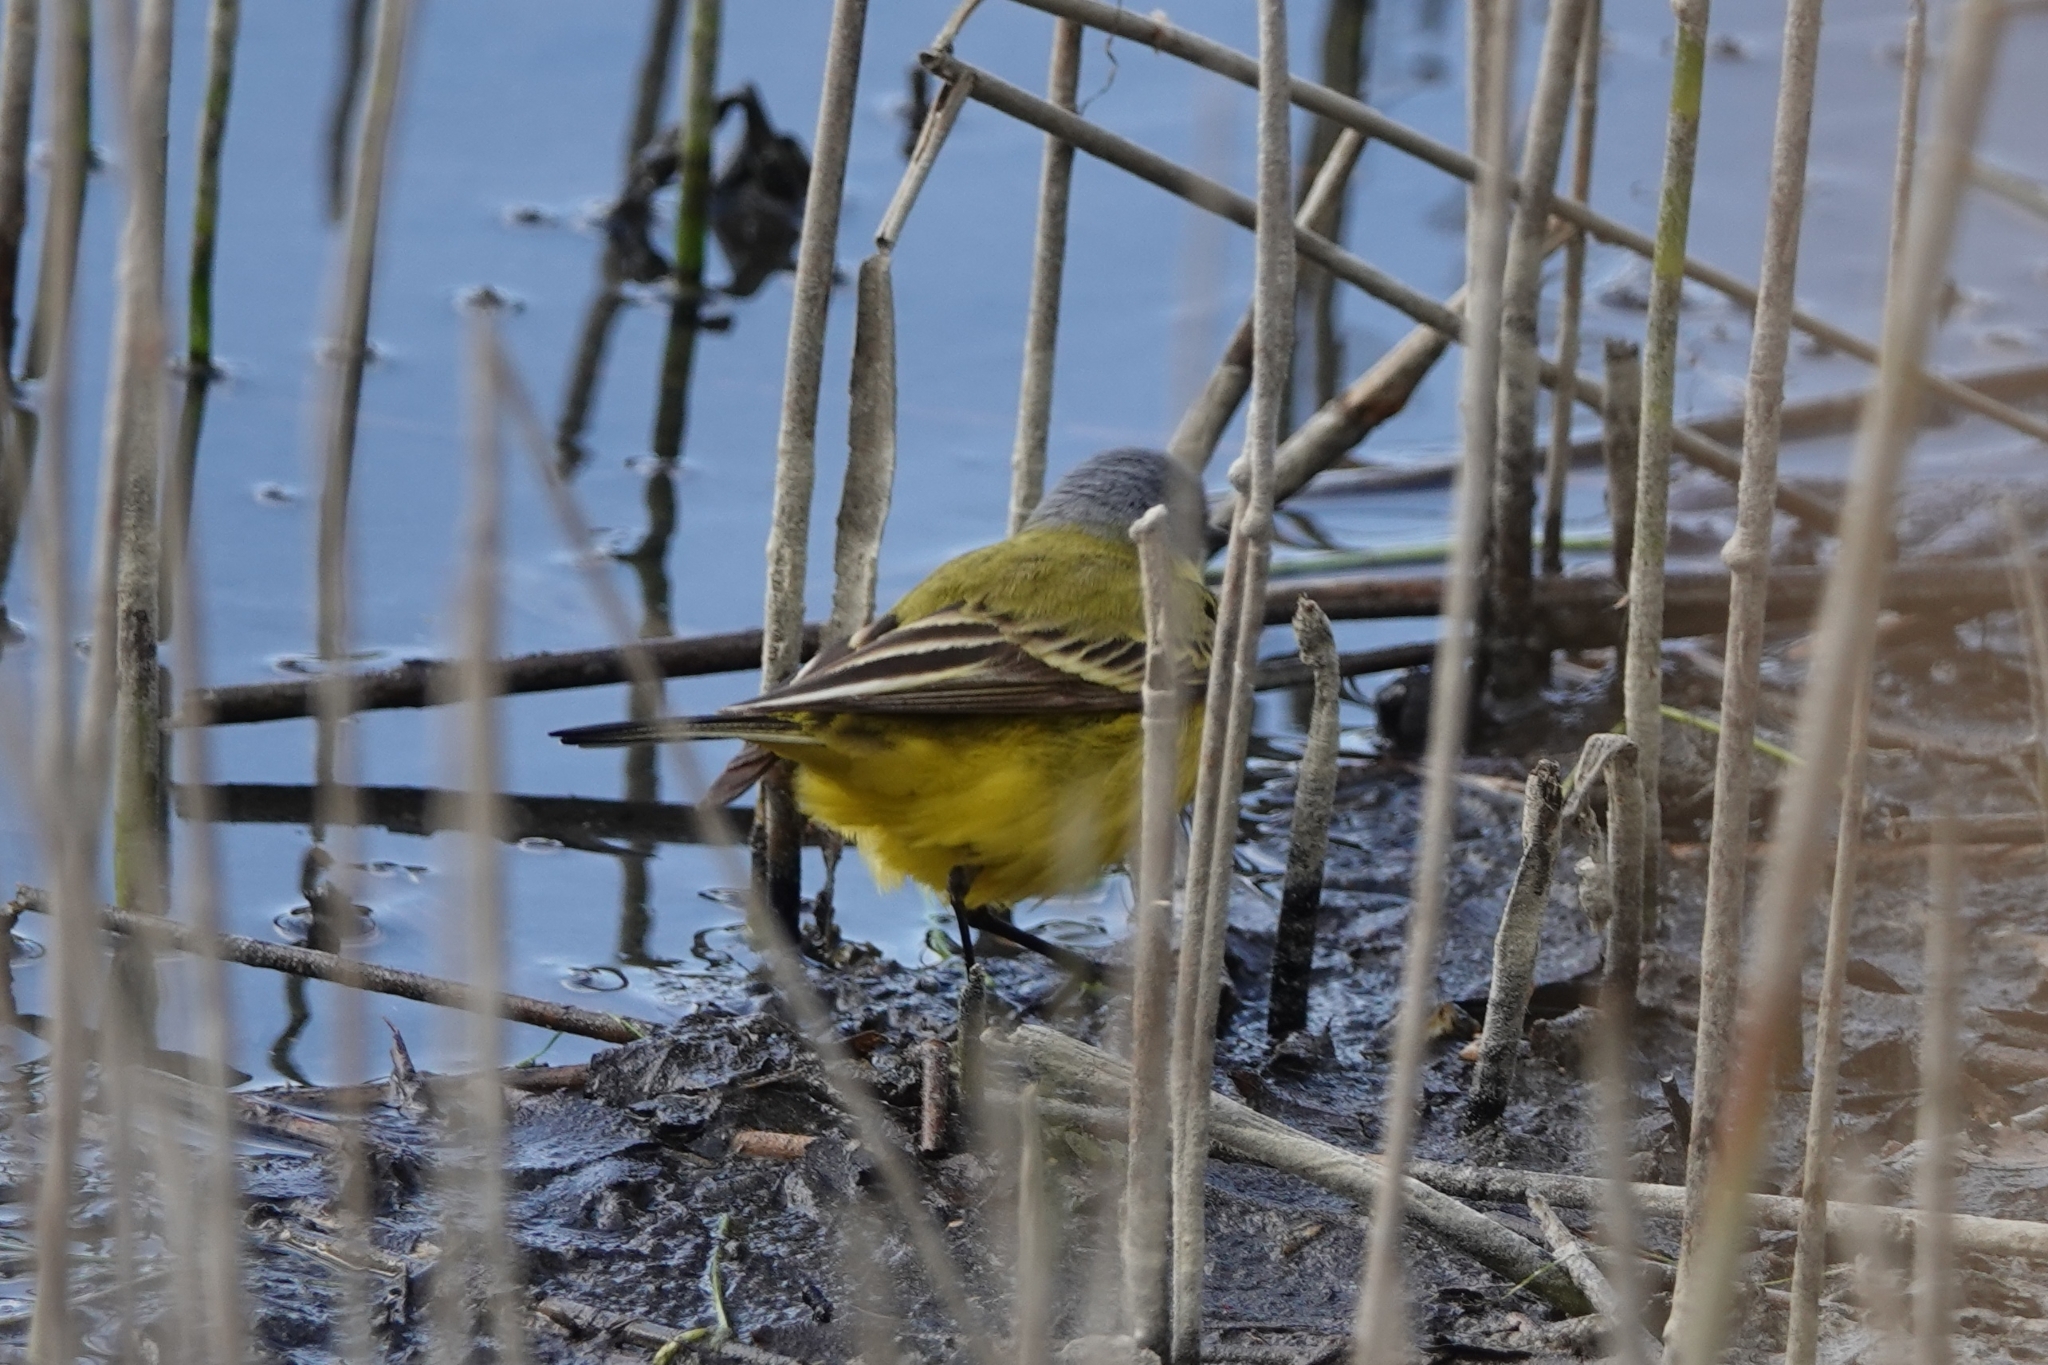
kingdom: Animalia
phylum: Chordata
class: Aves
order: Passeriformes
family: Motacillidae
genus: Motacilla
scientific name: Motacilla flava
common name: Western yellow wagtail
